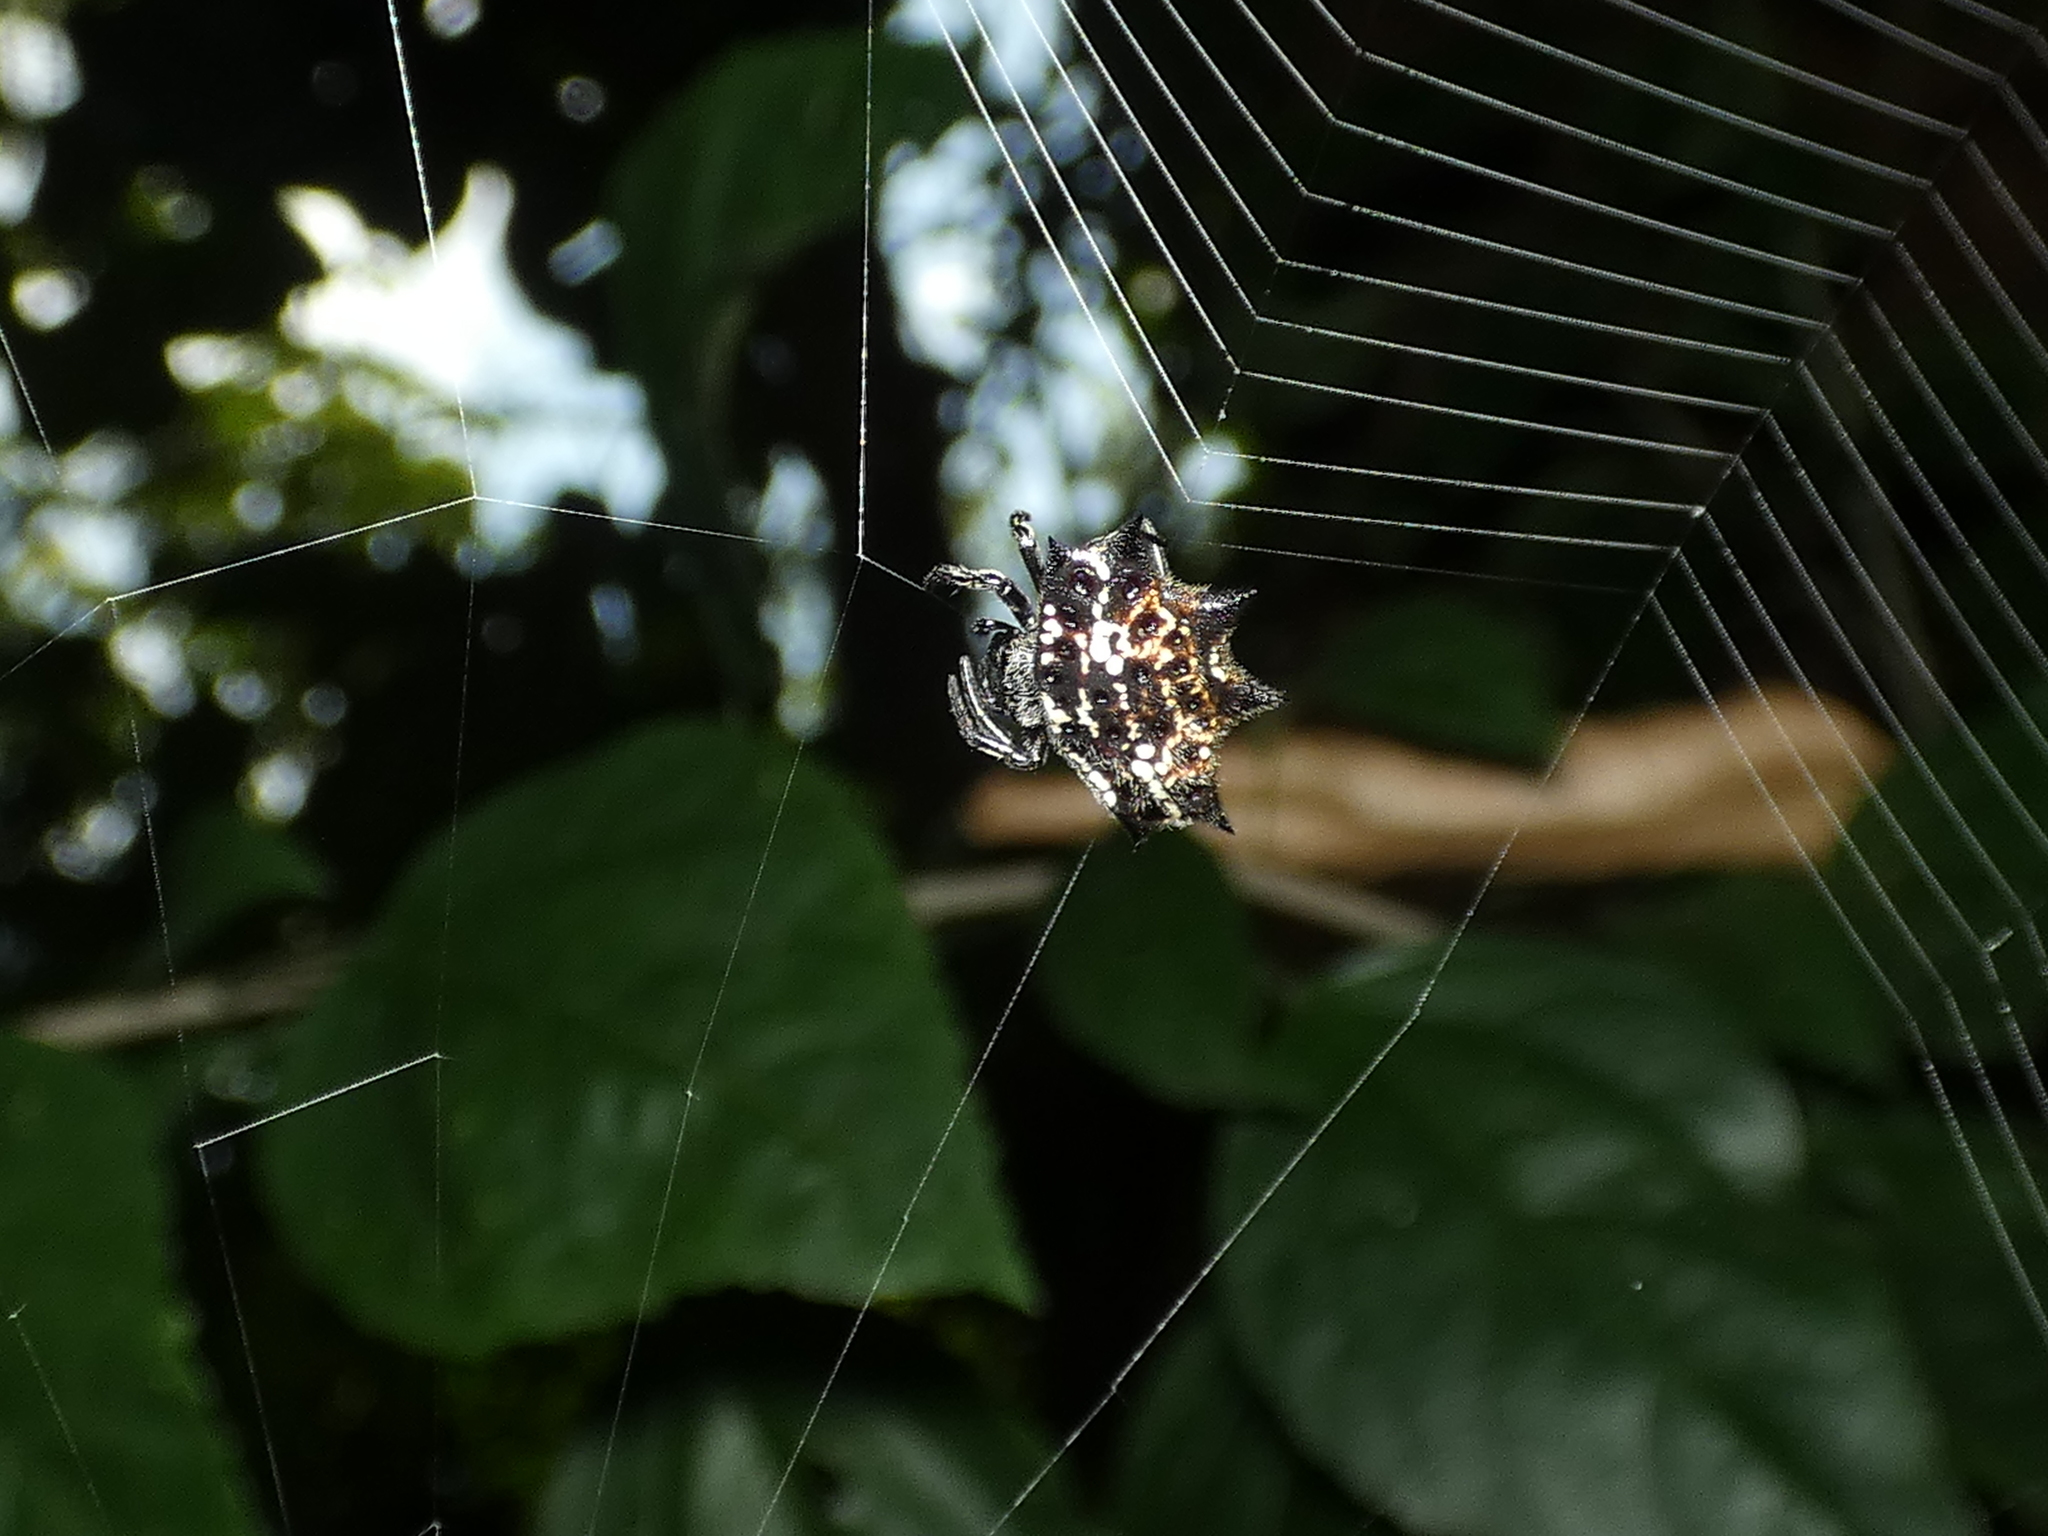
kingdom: Animalia
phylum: Arthropoda
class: Arachnida
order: Araneae
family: Araneidae
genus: Gasteracantha
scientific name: Gasteracantha cancriformis
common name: Orb weavers
